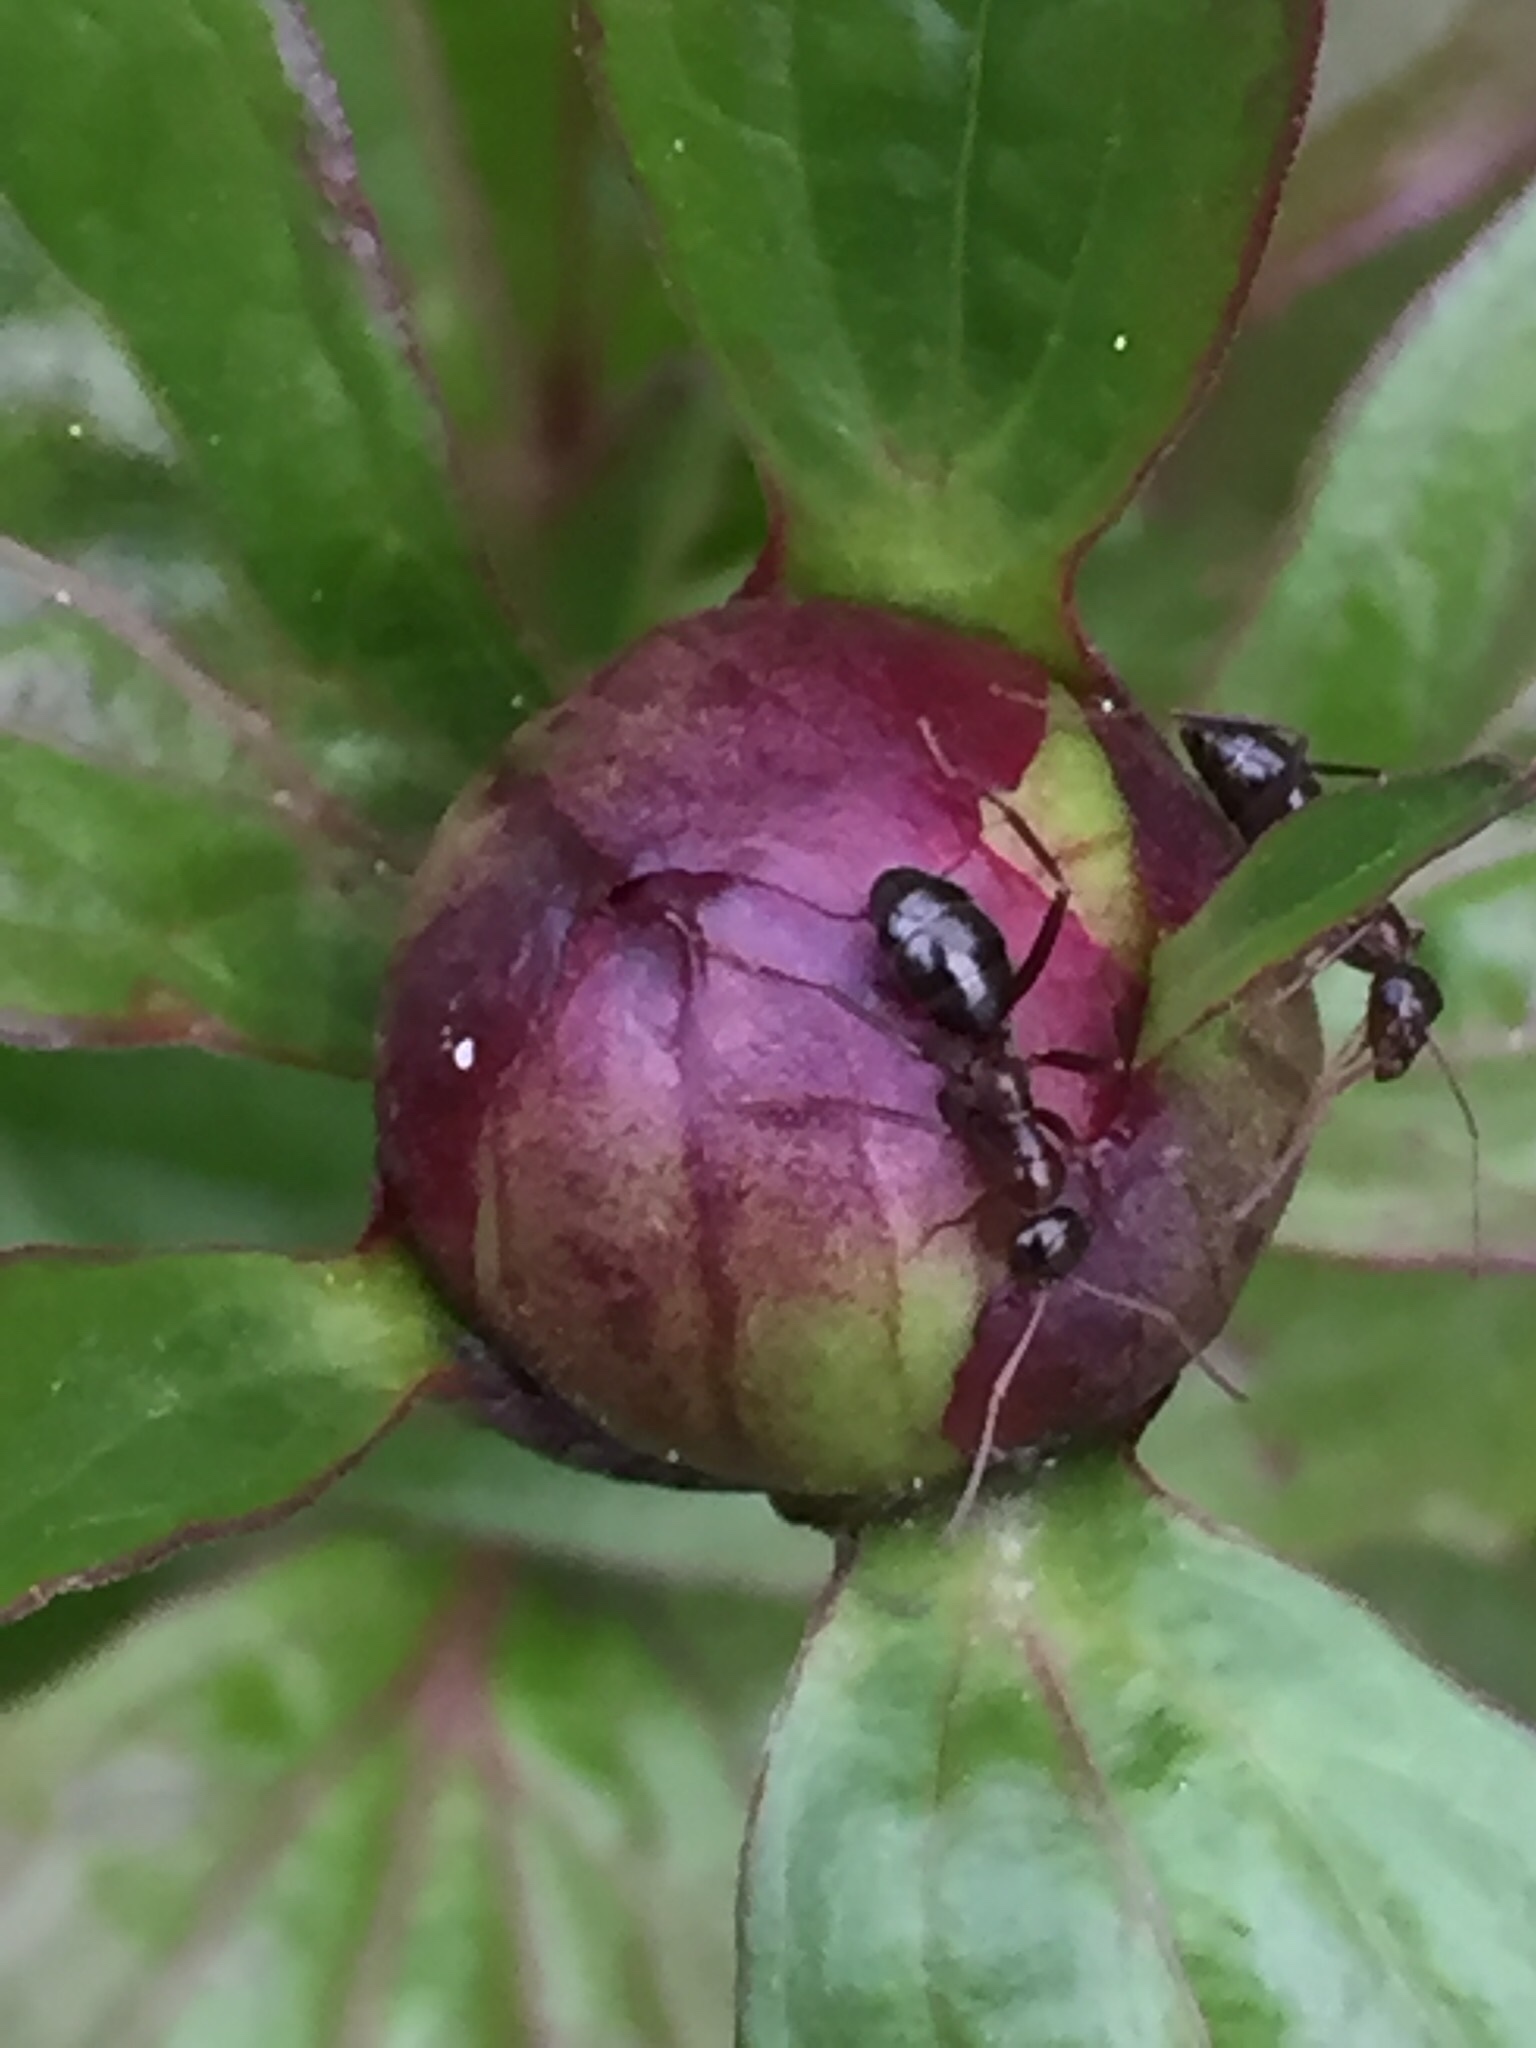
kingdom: Animalia
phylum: Arthropoda
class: Insecta
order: Hymenoptera
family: Formicidae
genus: Formica
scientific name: Formica pallidefulva
